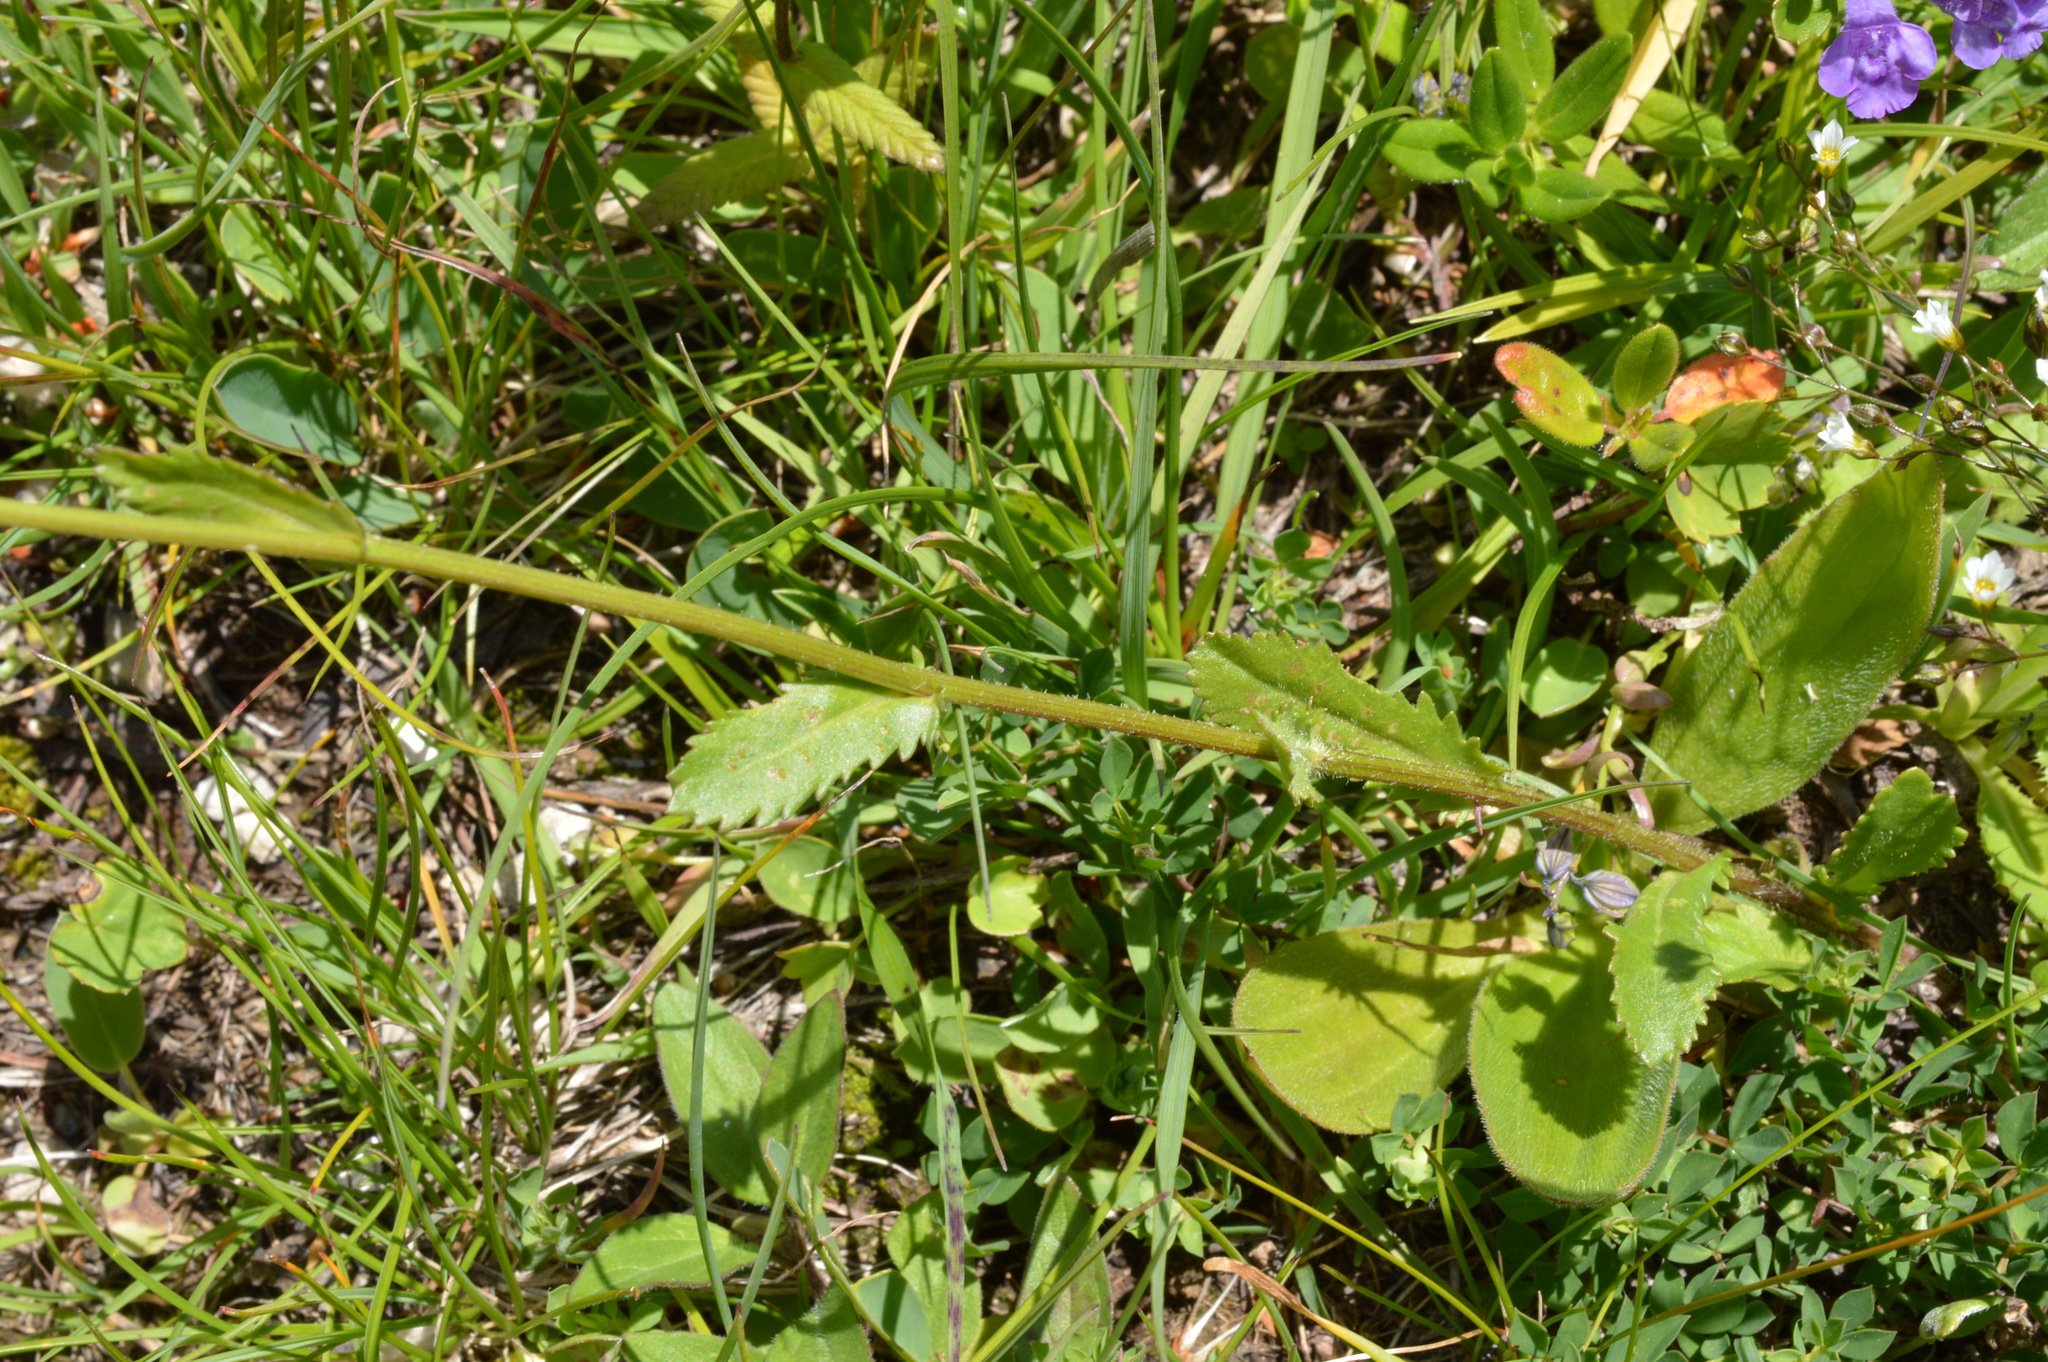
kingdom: Plantae
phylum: Tracheophyta
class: Magnoliopsida
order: Asterales
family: Asteraceae
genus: Leucanthemum
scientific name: Leucanthemum vulgare
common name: Oxeye daisy
